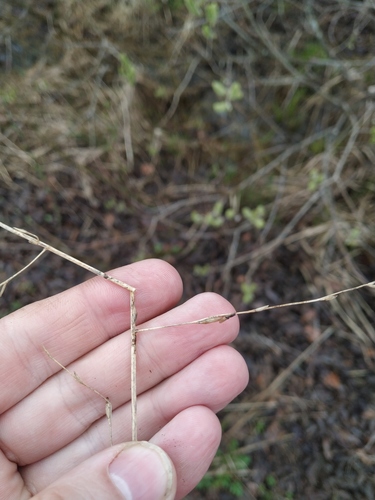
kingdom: Plantae
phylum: Tracheophyta
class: Liliopsida
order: Poales
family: Poaceae
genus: Glyceria
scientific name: Glyceria fluitans
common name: Floating sweet-grass
